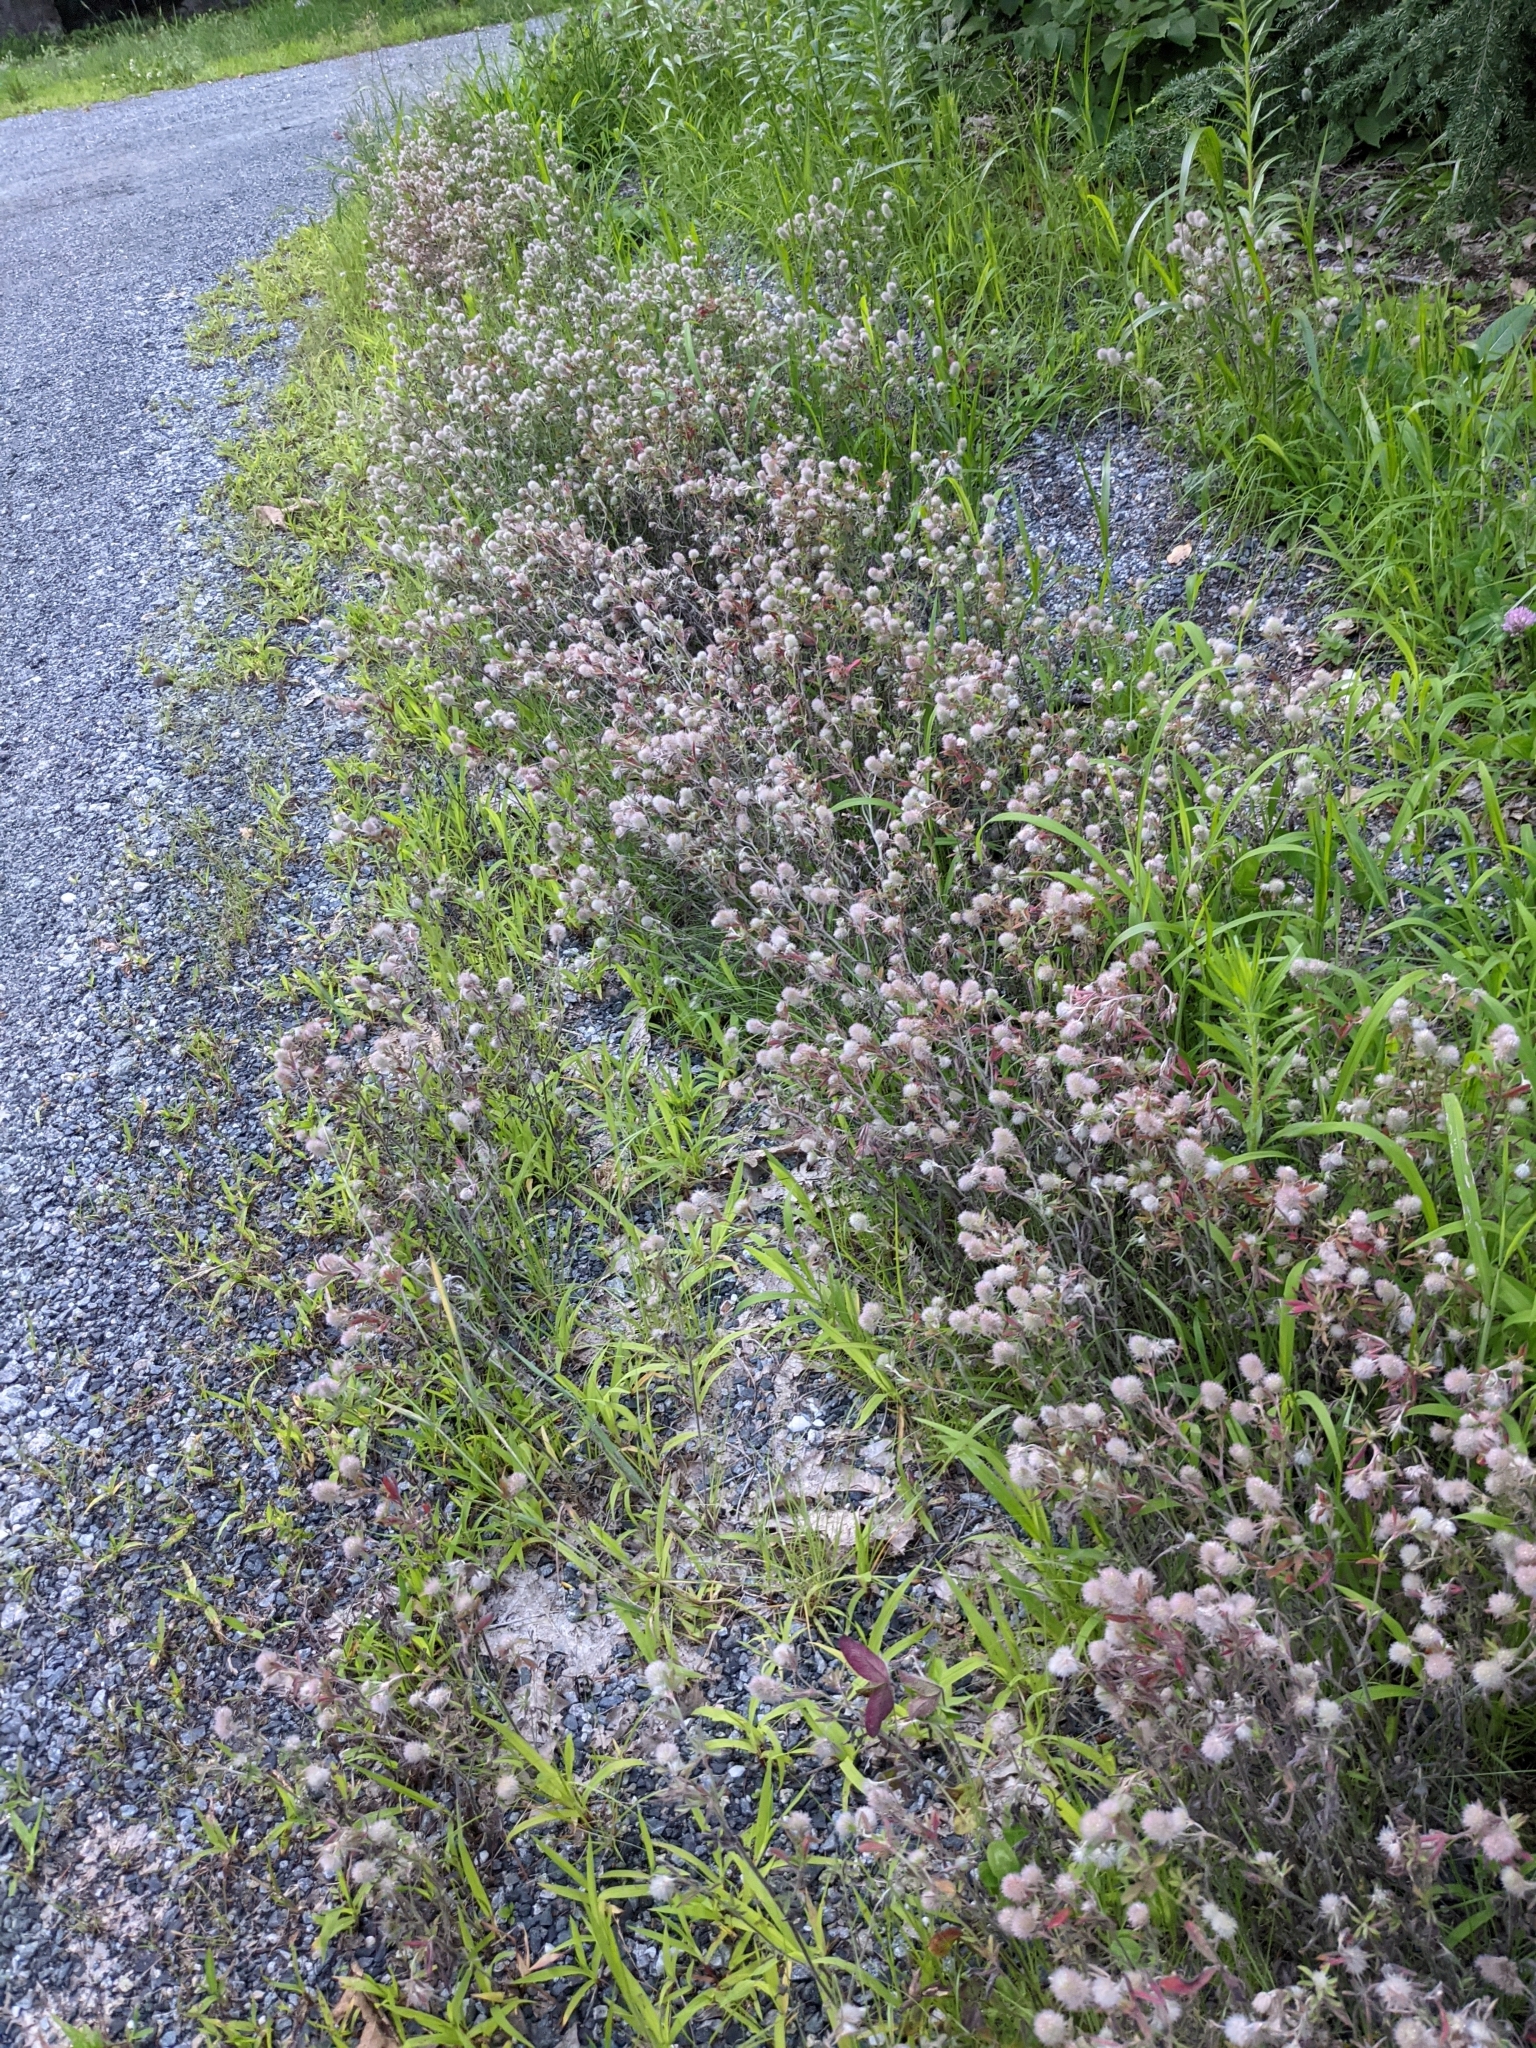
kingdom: Plantae
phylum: Tracheophyta
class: Magnoliopsida
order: Fabales
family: Fabaceae
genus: Trifolium
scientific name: Trifolium arvense
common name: Hare's-foot clover
